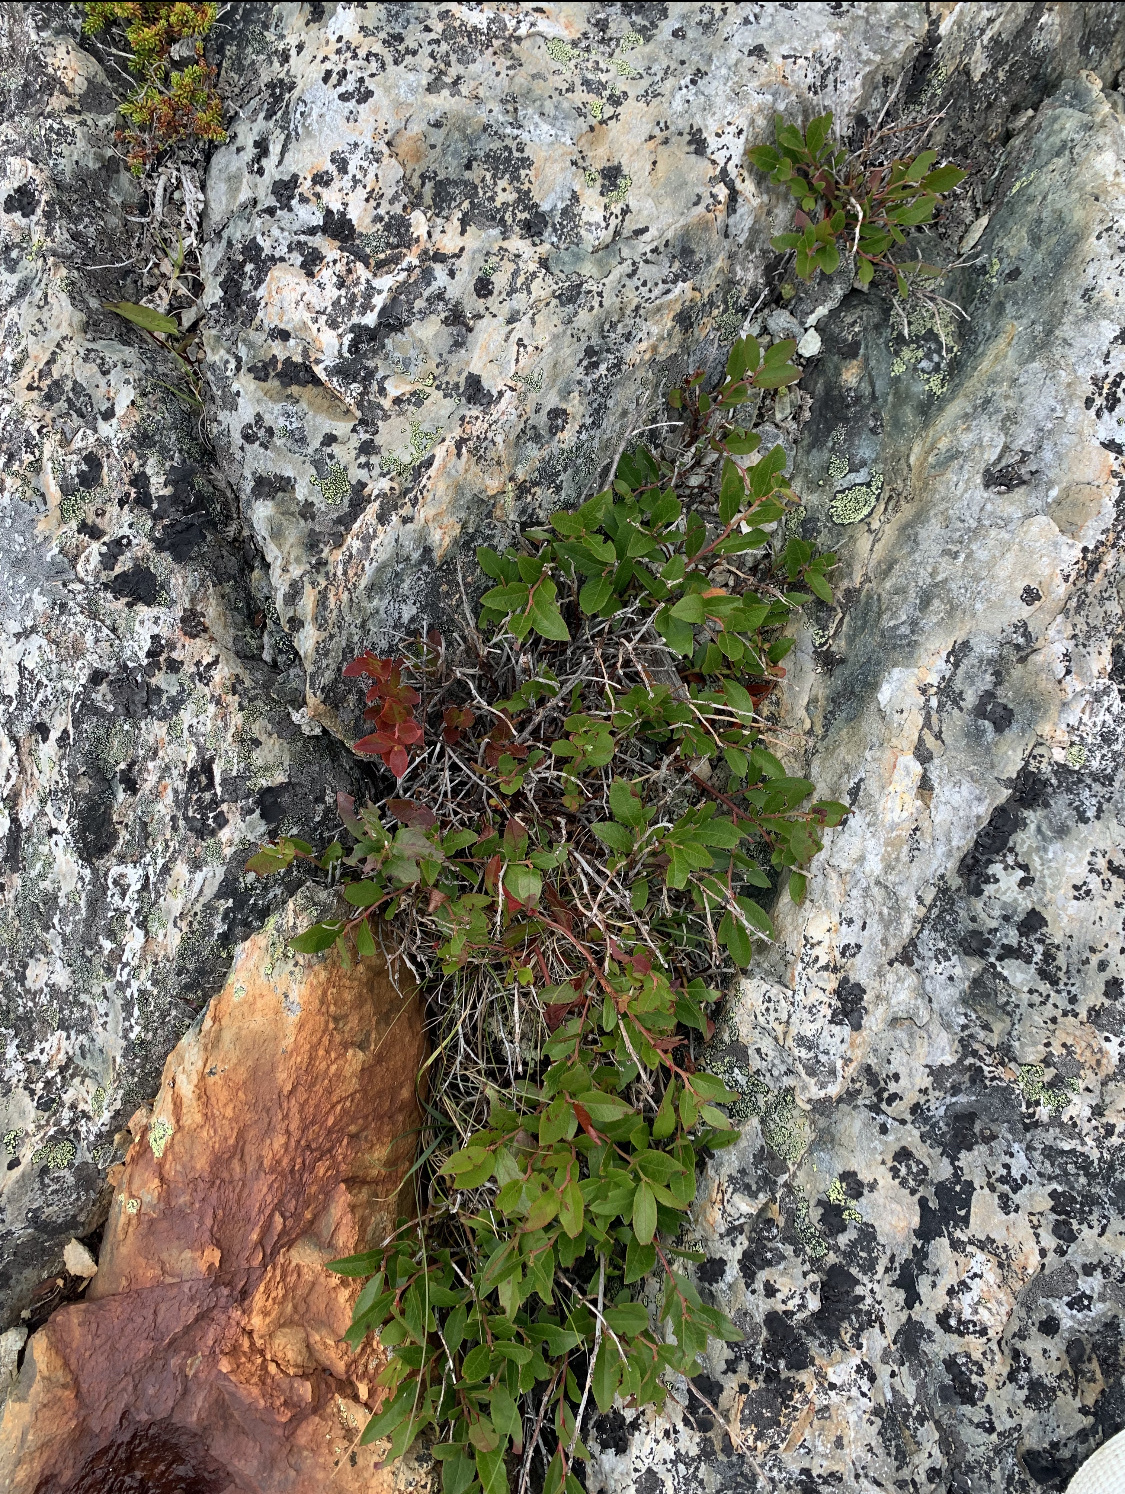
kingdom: Plantae
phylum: Tracheophyta
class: Magnoliopsida
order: Malpighiales
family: Salicaceae
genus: Salix
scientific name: Salix uva-ursi
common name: Bearberry willow
